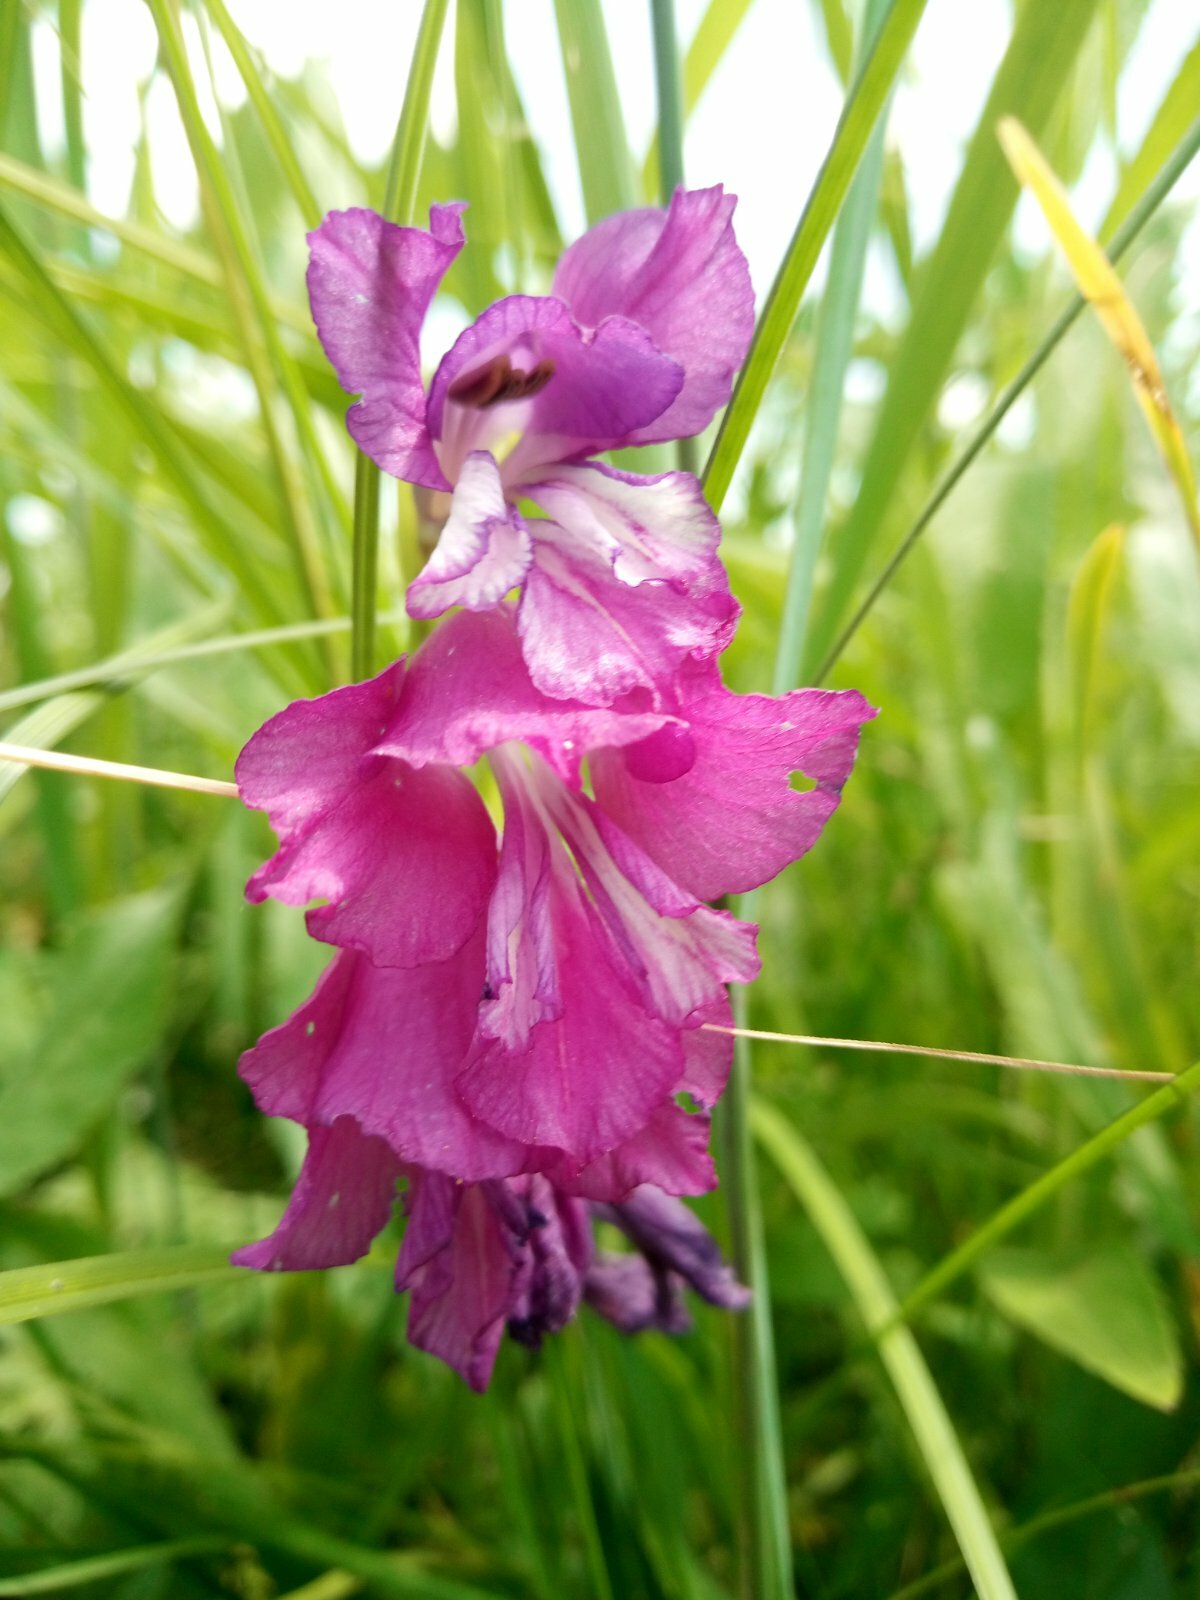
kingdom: Plantae
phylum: Tracheophyta
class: Liliopsida
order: Asparagales
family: Iridaceae
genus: Gladiolus
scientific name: Gladiolus tenuis
